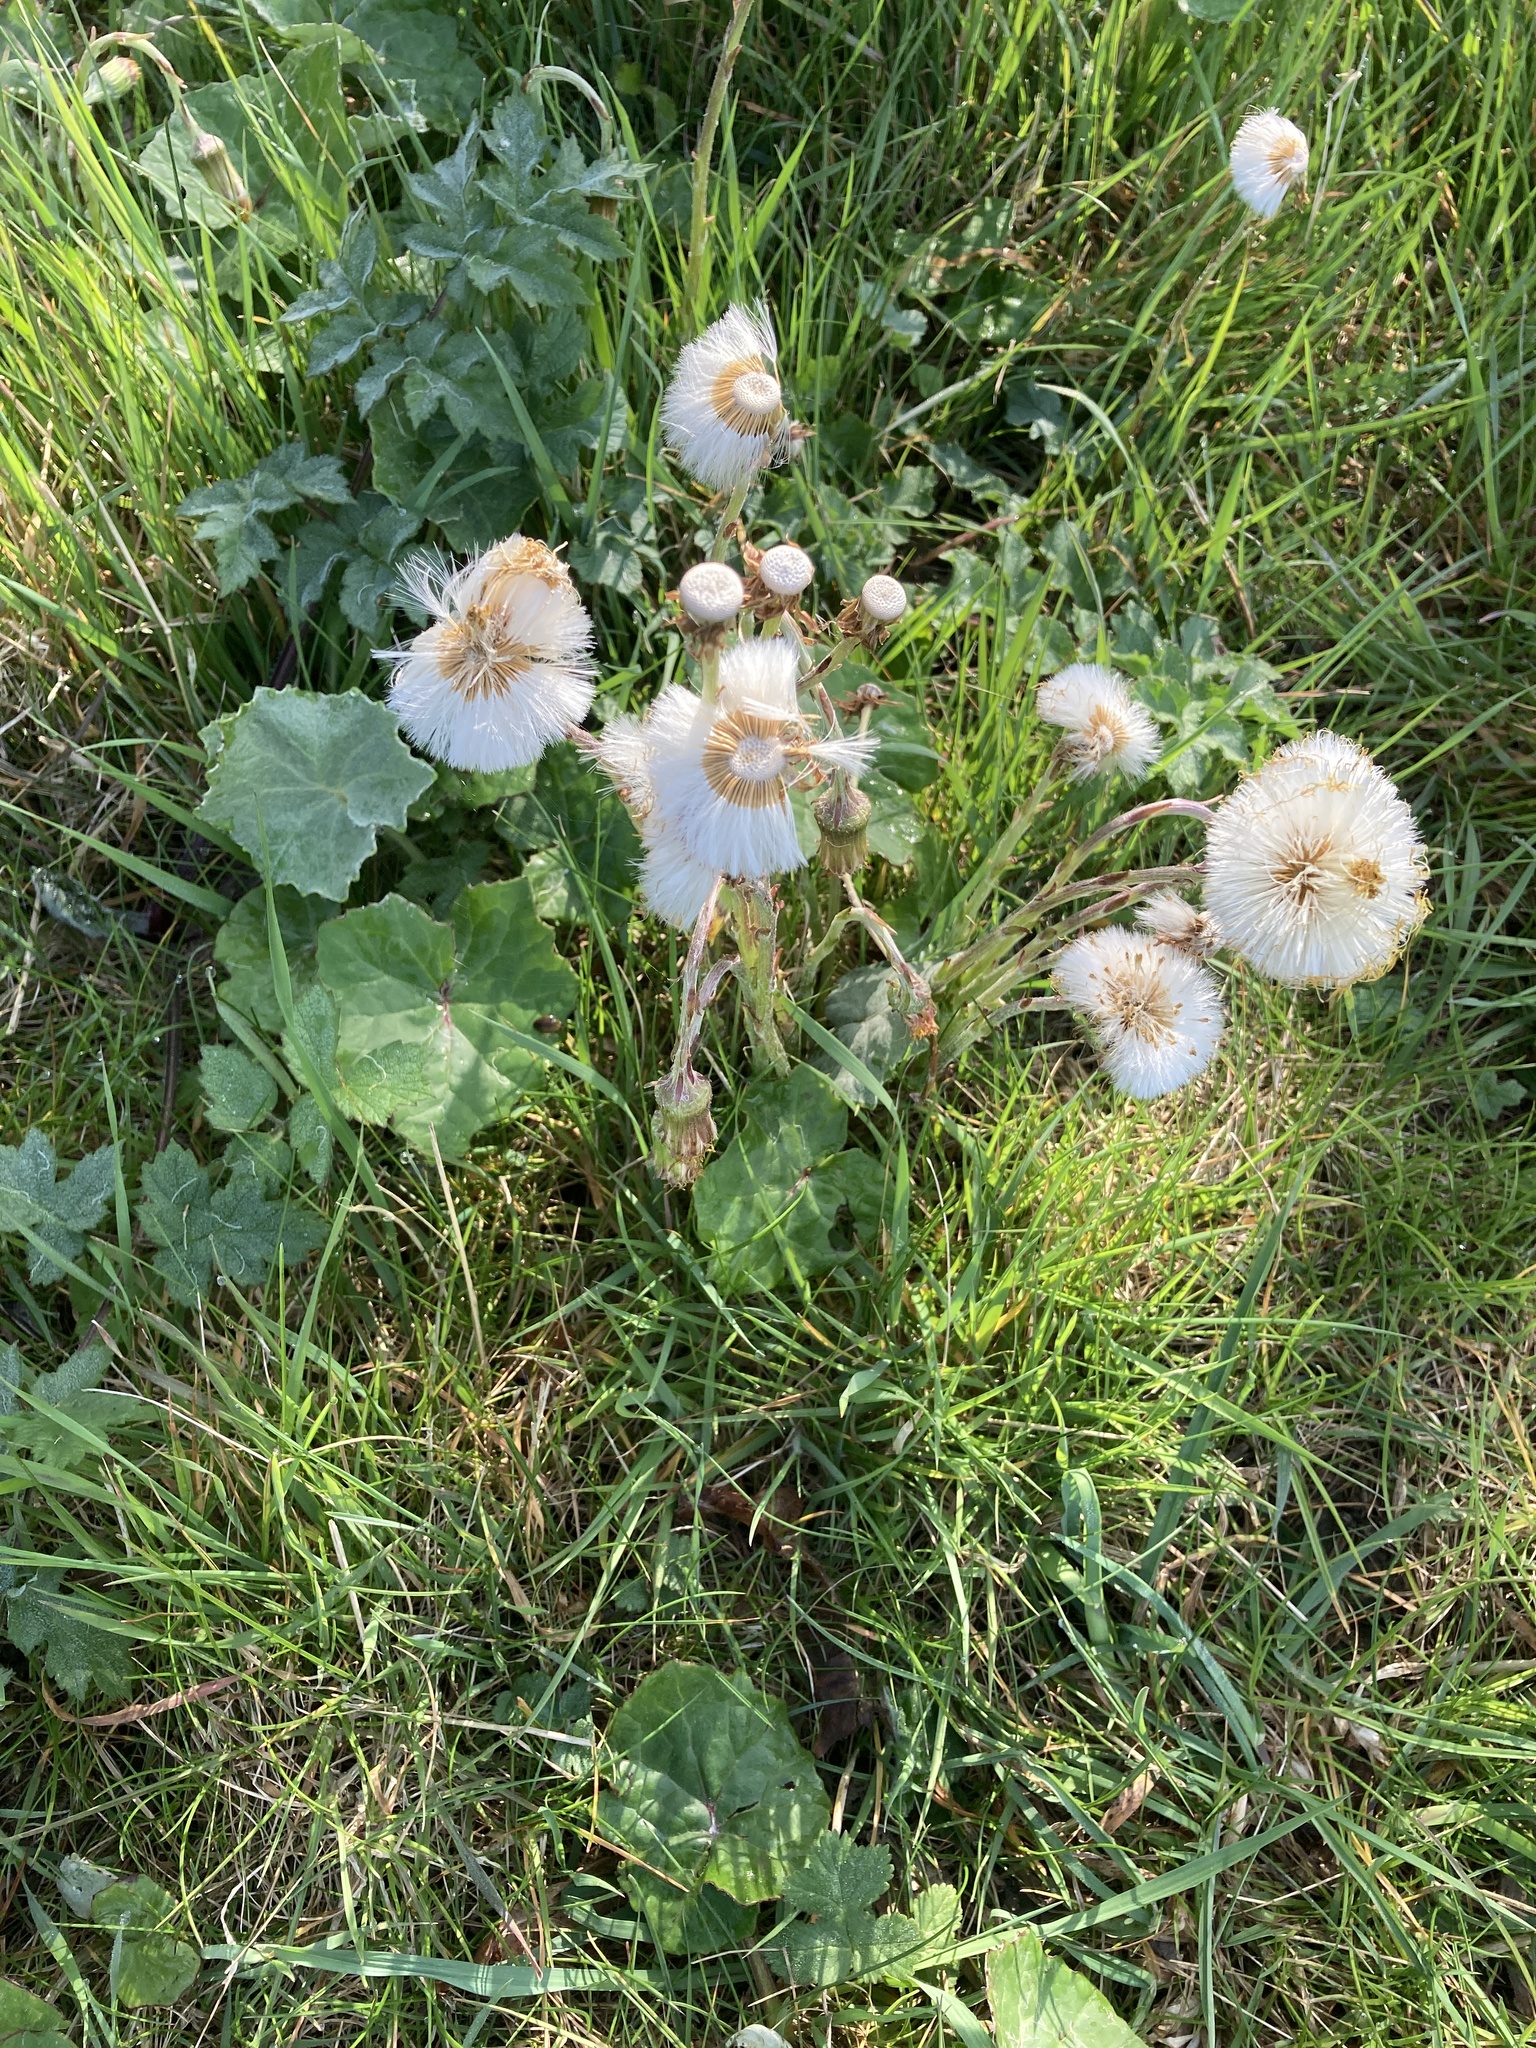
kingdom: Plantae
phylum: Tracheophyta
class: Magnoliopsida
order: Asterales
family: Asteraceae
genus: Tussilago
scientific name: Tussilago farfara
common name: Coltsfoot
